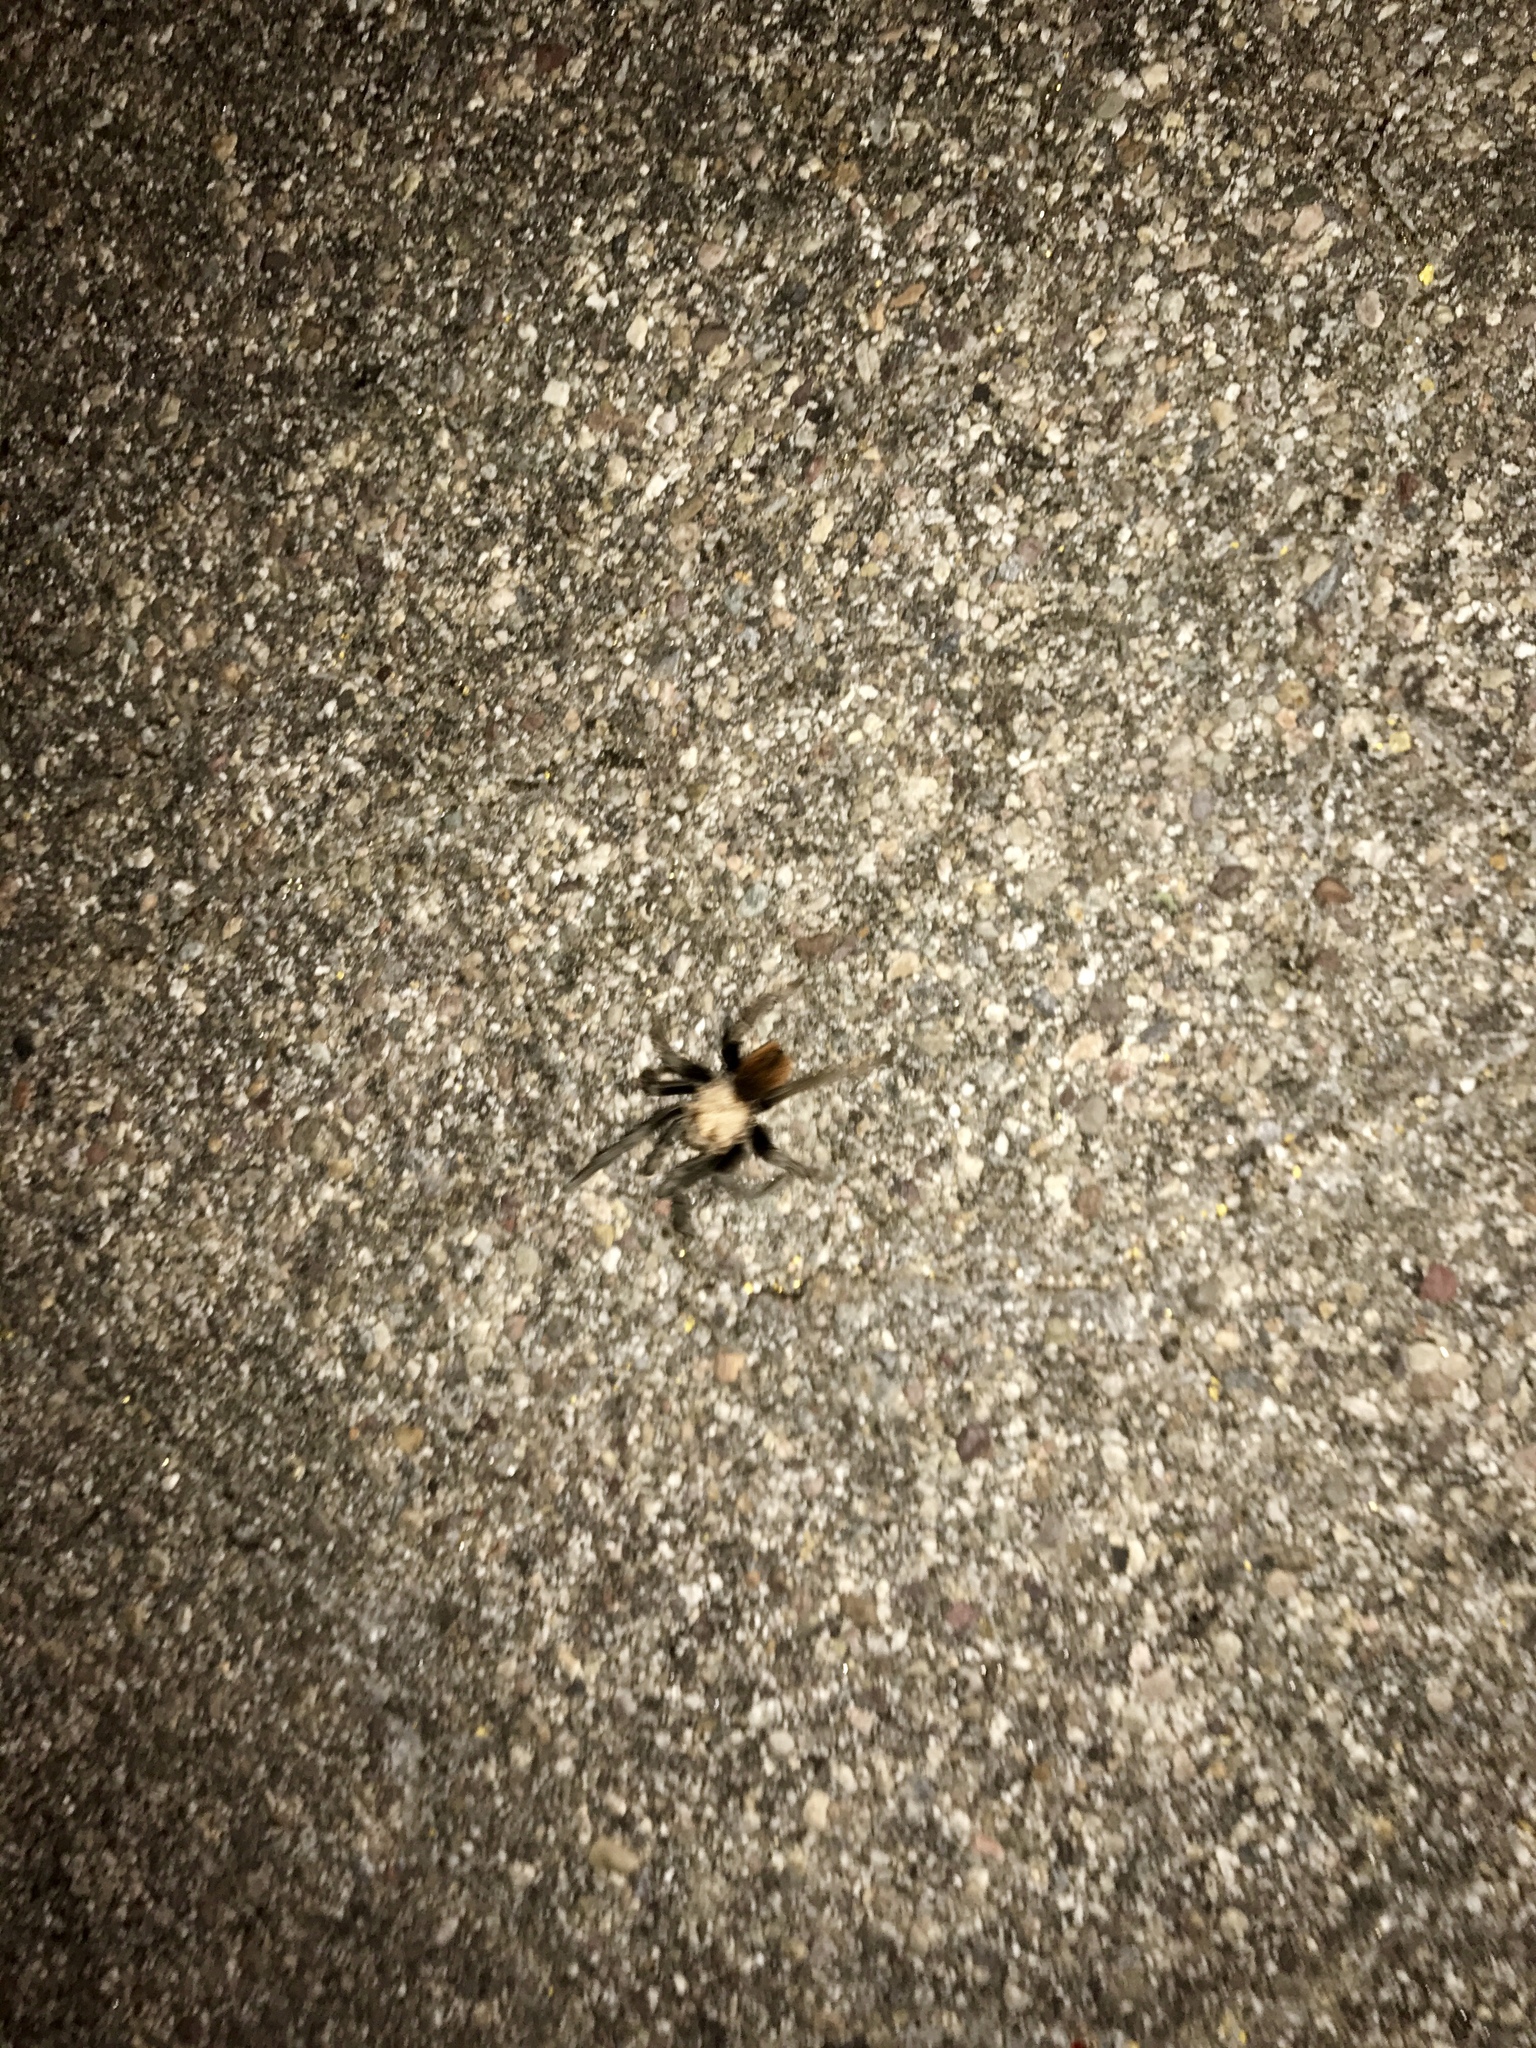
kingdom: Animalia
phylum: Arthropoda
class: Arachnida
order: Araneae
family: Theraphosidae
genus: Aphonopelma
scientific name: Aphonopelma chalcodes
